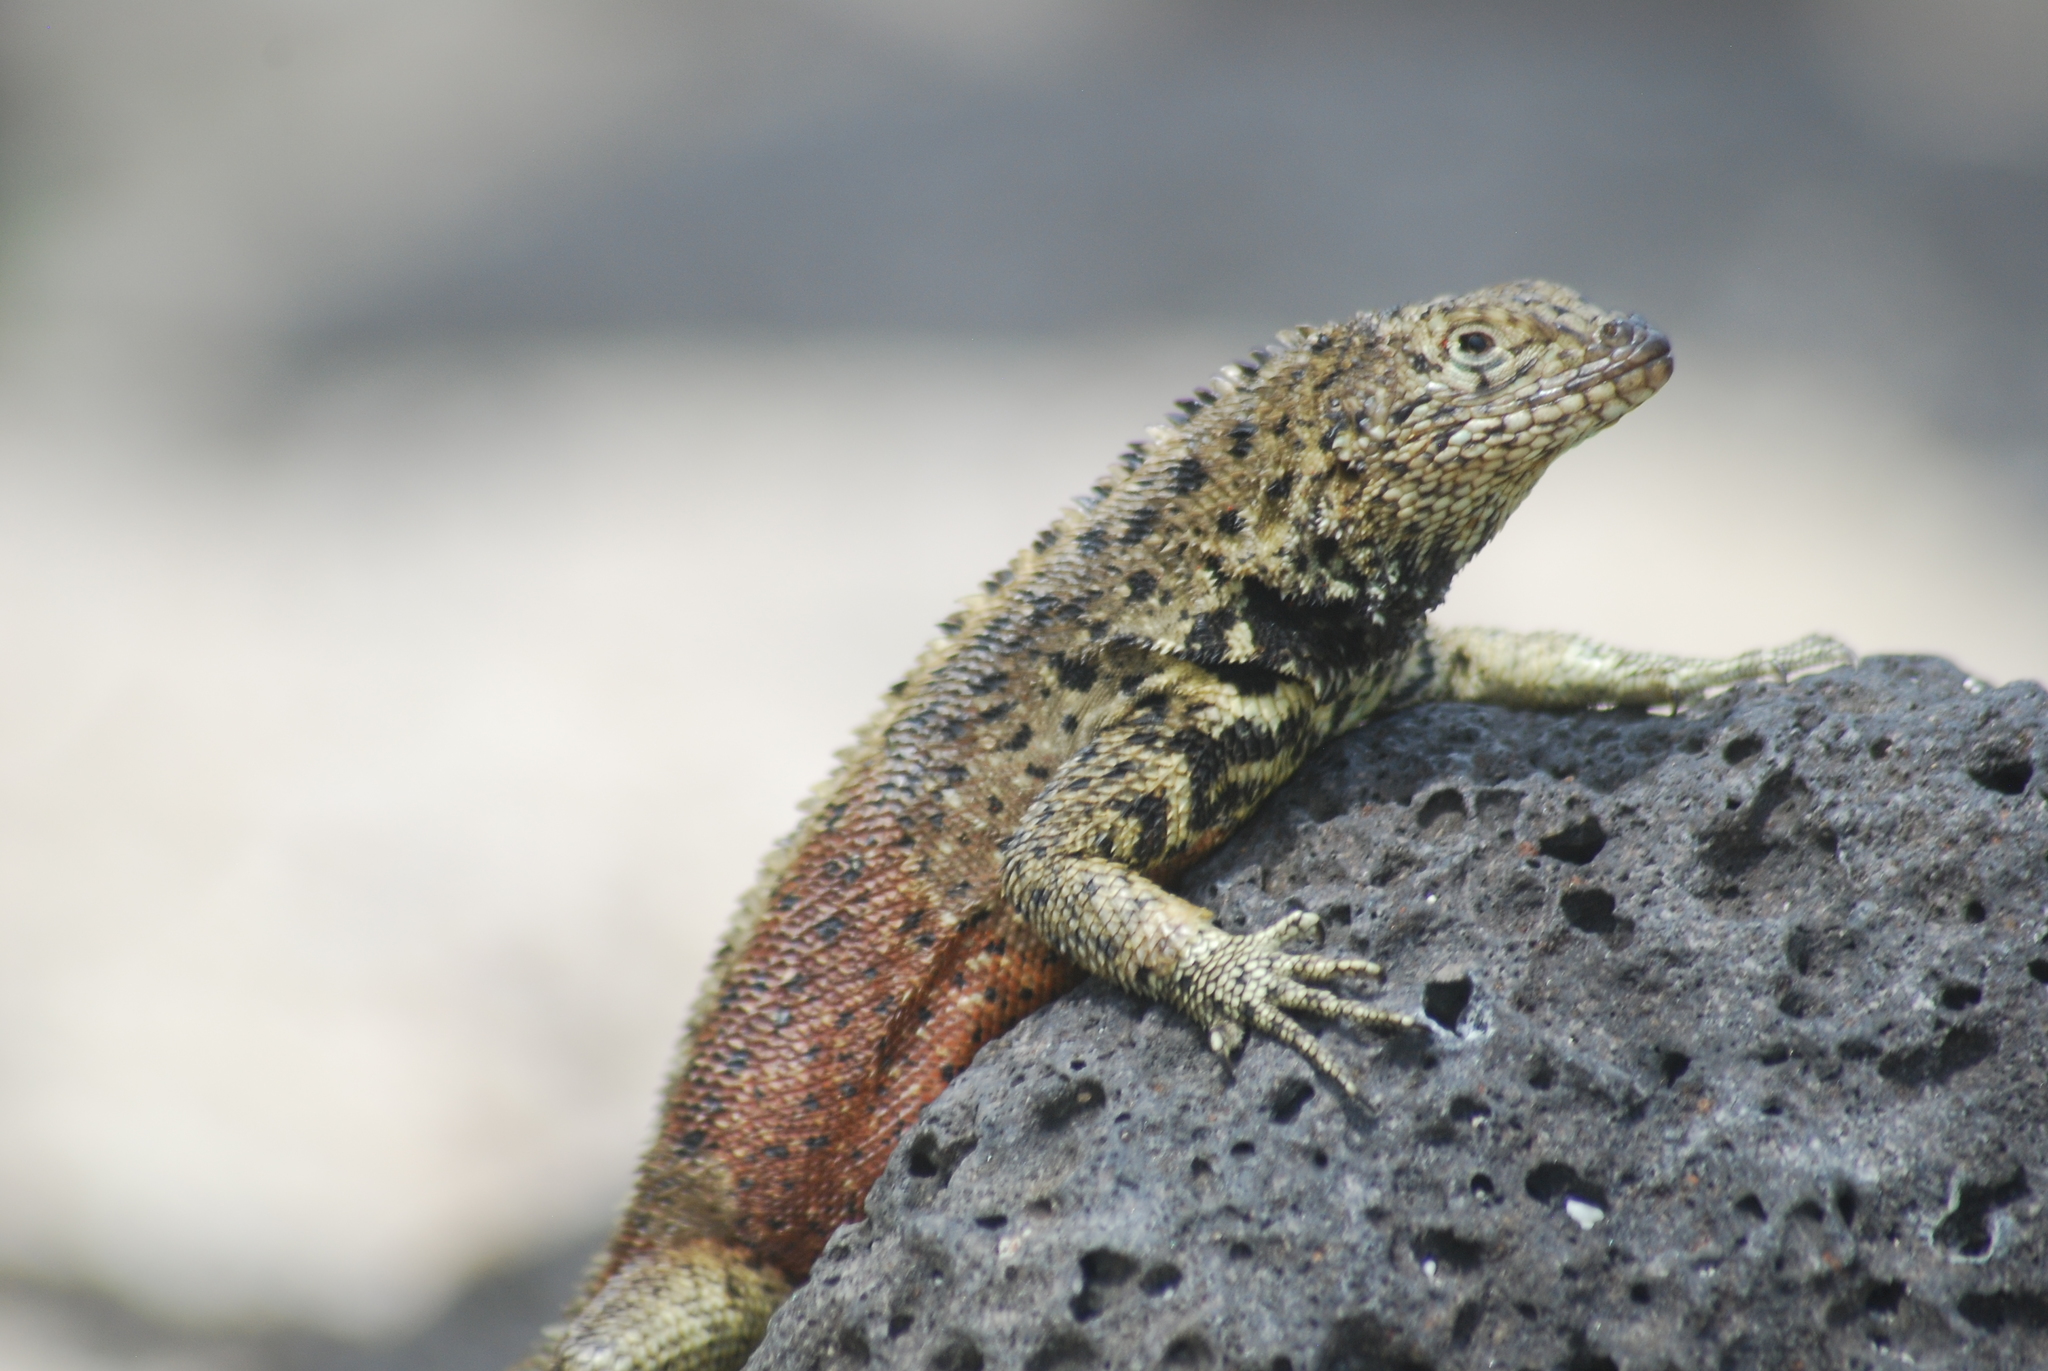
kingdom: Animalia
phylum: Chordata
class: Squamata
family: Tropiduridae
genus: Microlophus
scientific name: Microlophus delanonis
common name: Hood lava lizard
